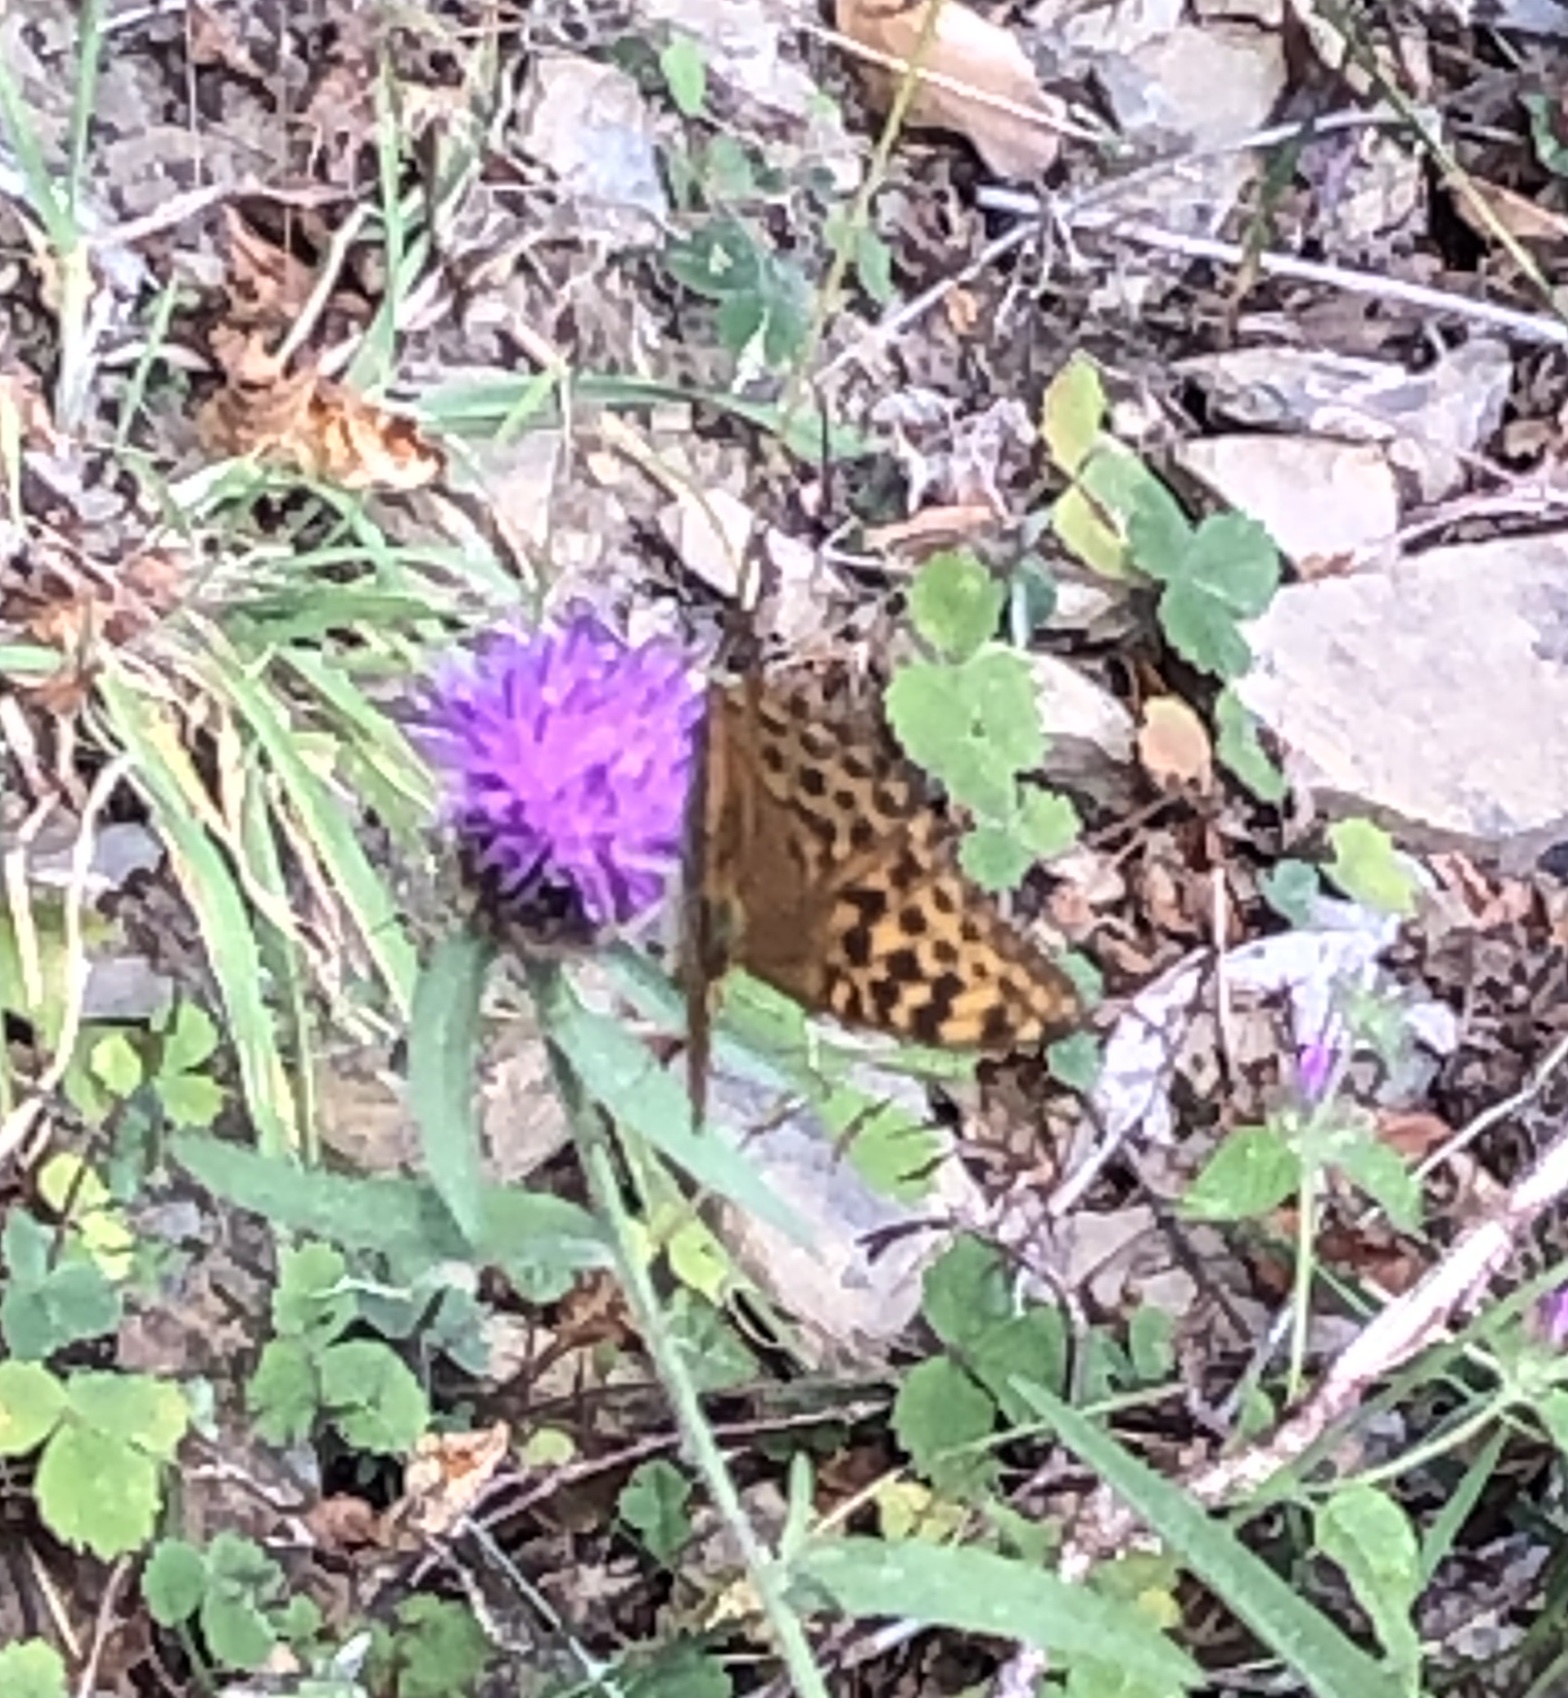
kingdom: Animalia
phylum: Arthropoda
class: Insecta
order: Lepidoptera
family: Nymphalidae
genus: Argynnis
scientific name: Argynnis paphia
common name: Silver-washed fritillary
